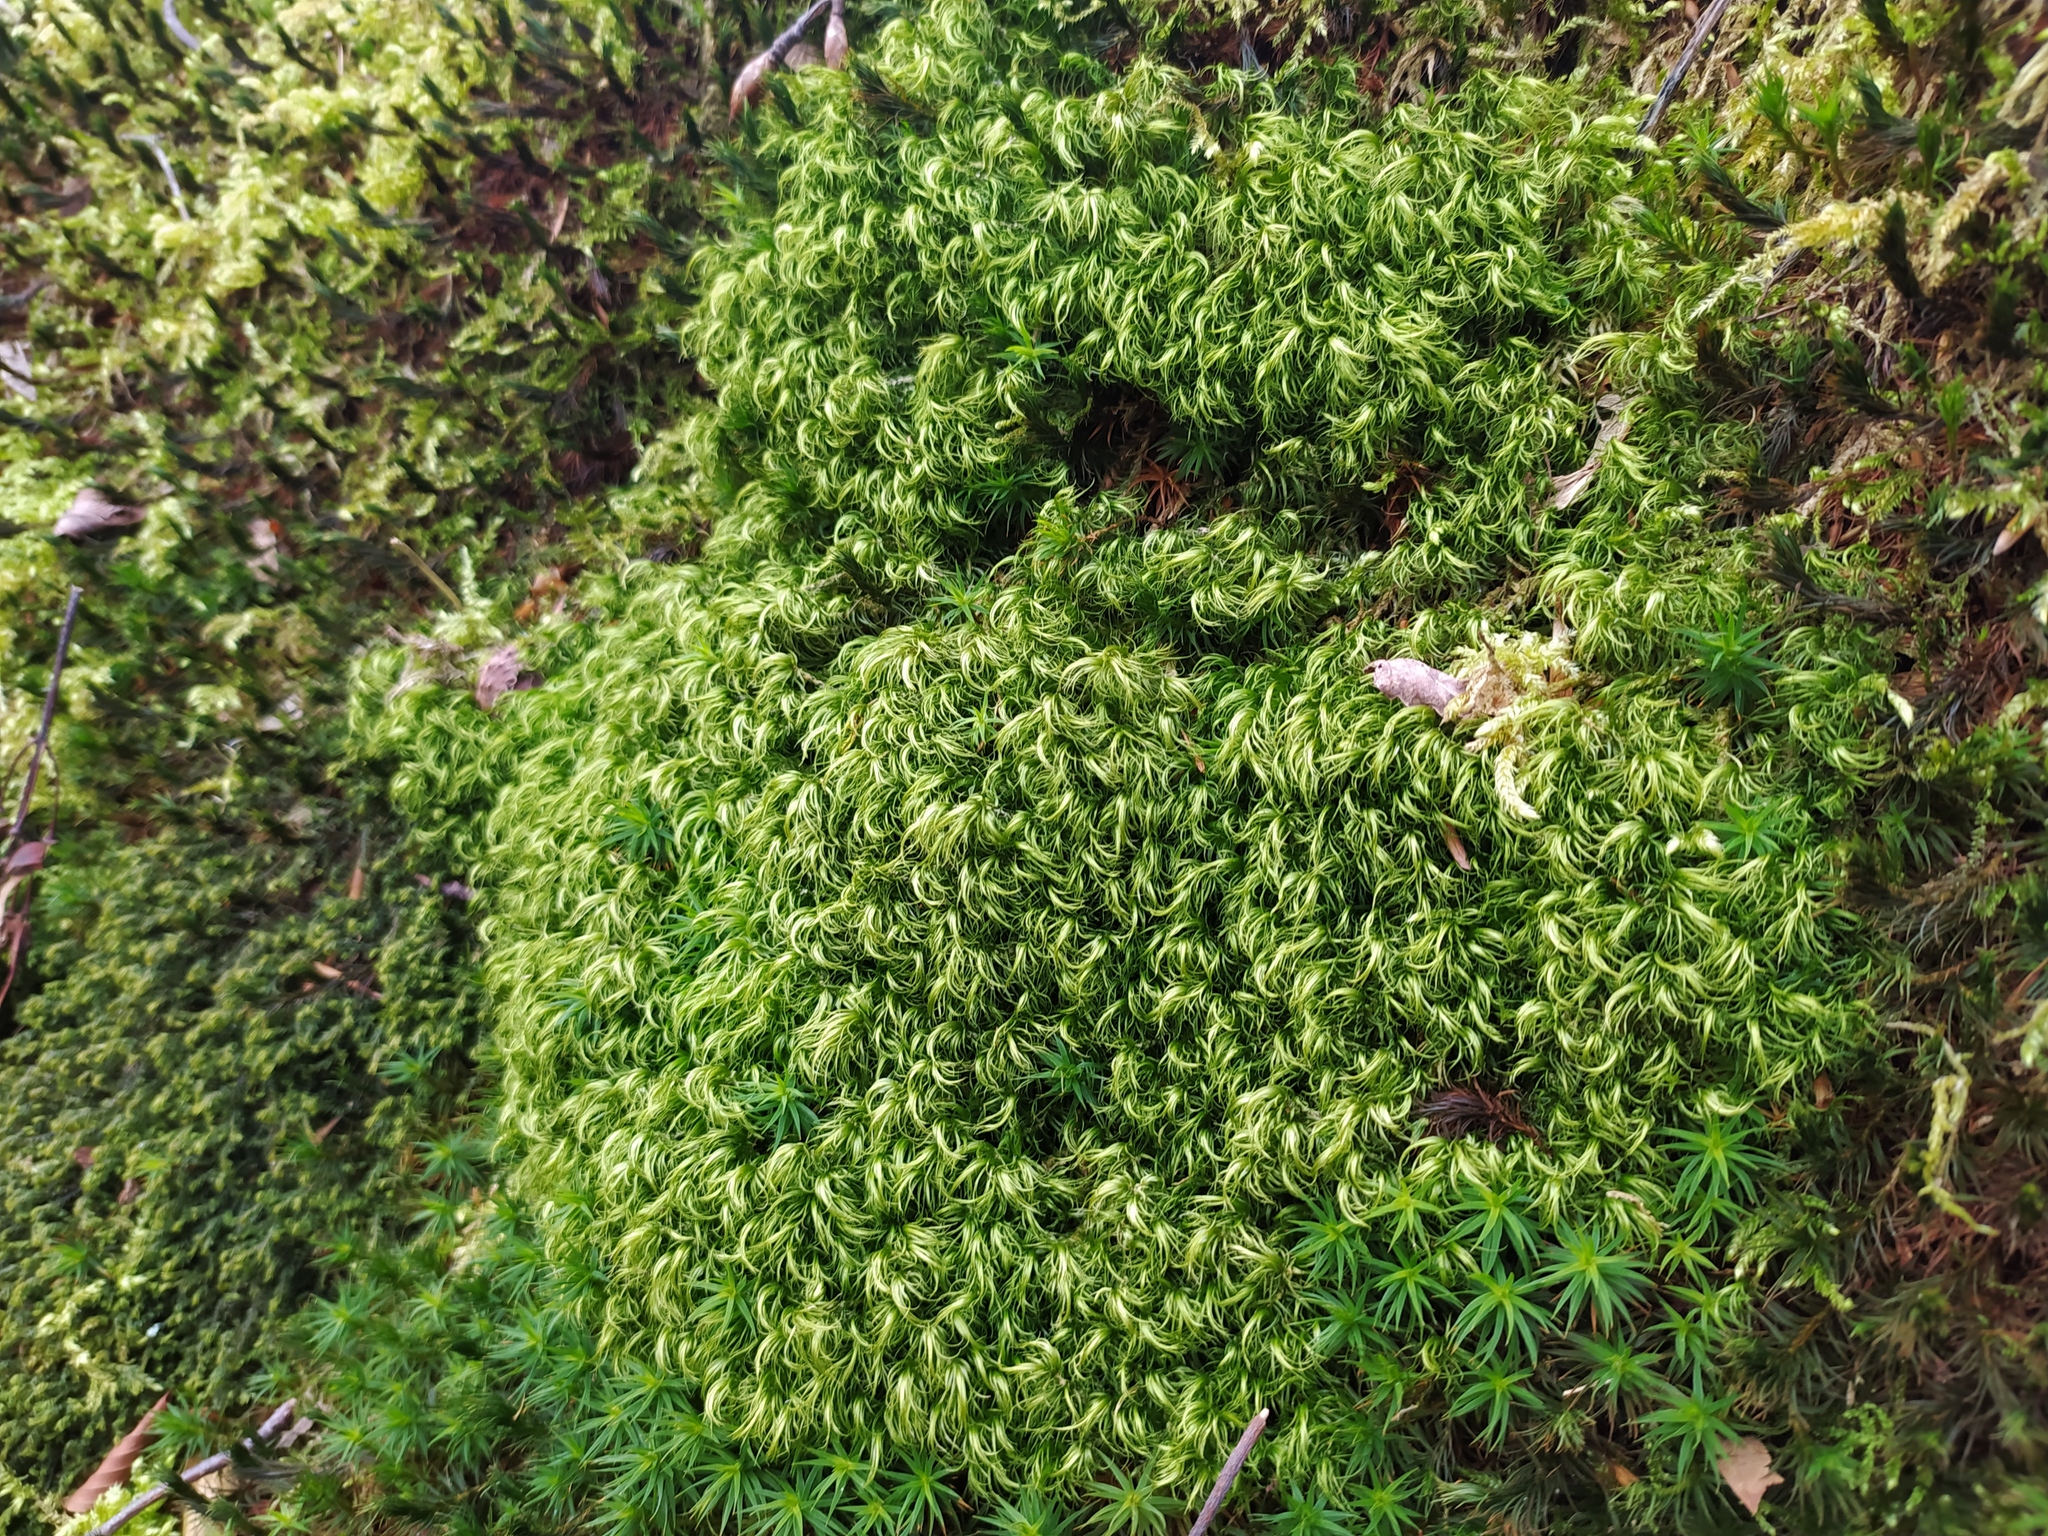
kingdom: Plantae
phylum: Bryophyta
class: Bryopsida
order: Dicranales
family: Dicranaceae
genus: Paraleucobryum
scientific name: Paraleucobryum longifolium
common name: Long-leaved fork moss
